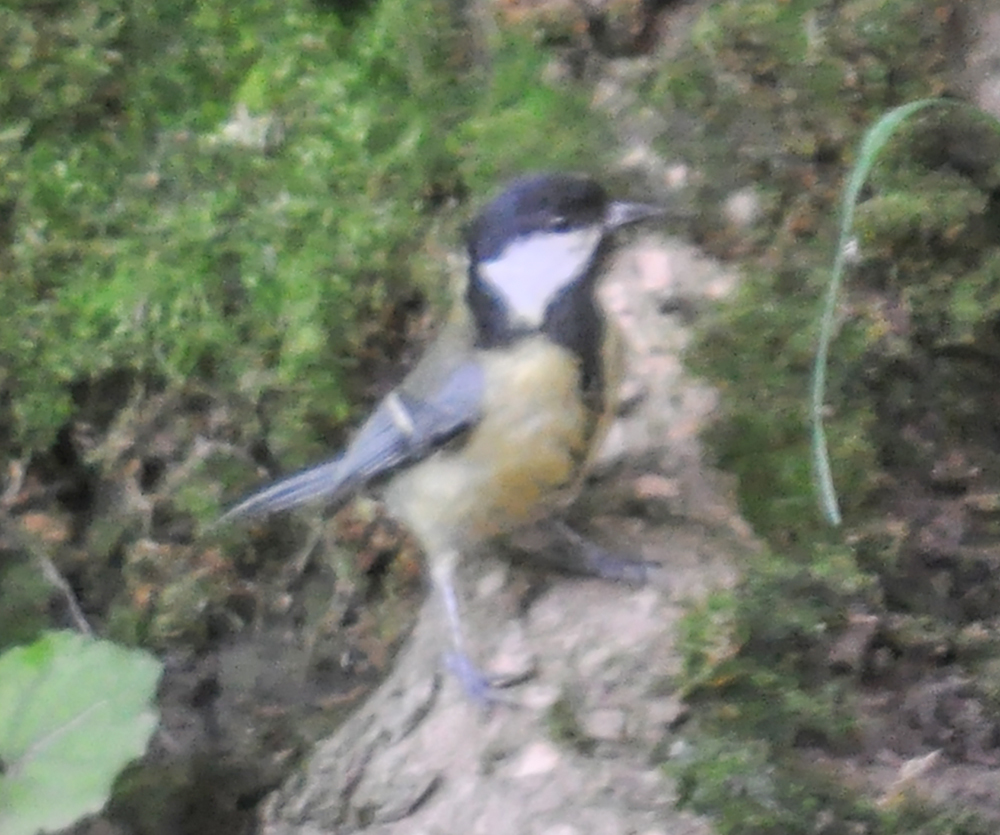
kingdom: Animalia
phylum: Chordata
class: Aves
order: Passeriformes
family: Paridae
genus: Parus
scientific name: Parus major
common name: Great tit
